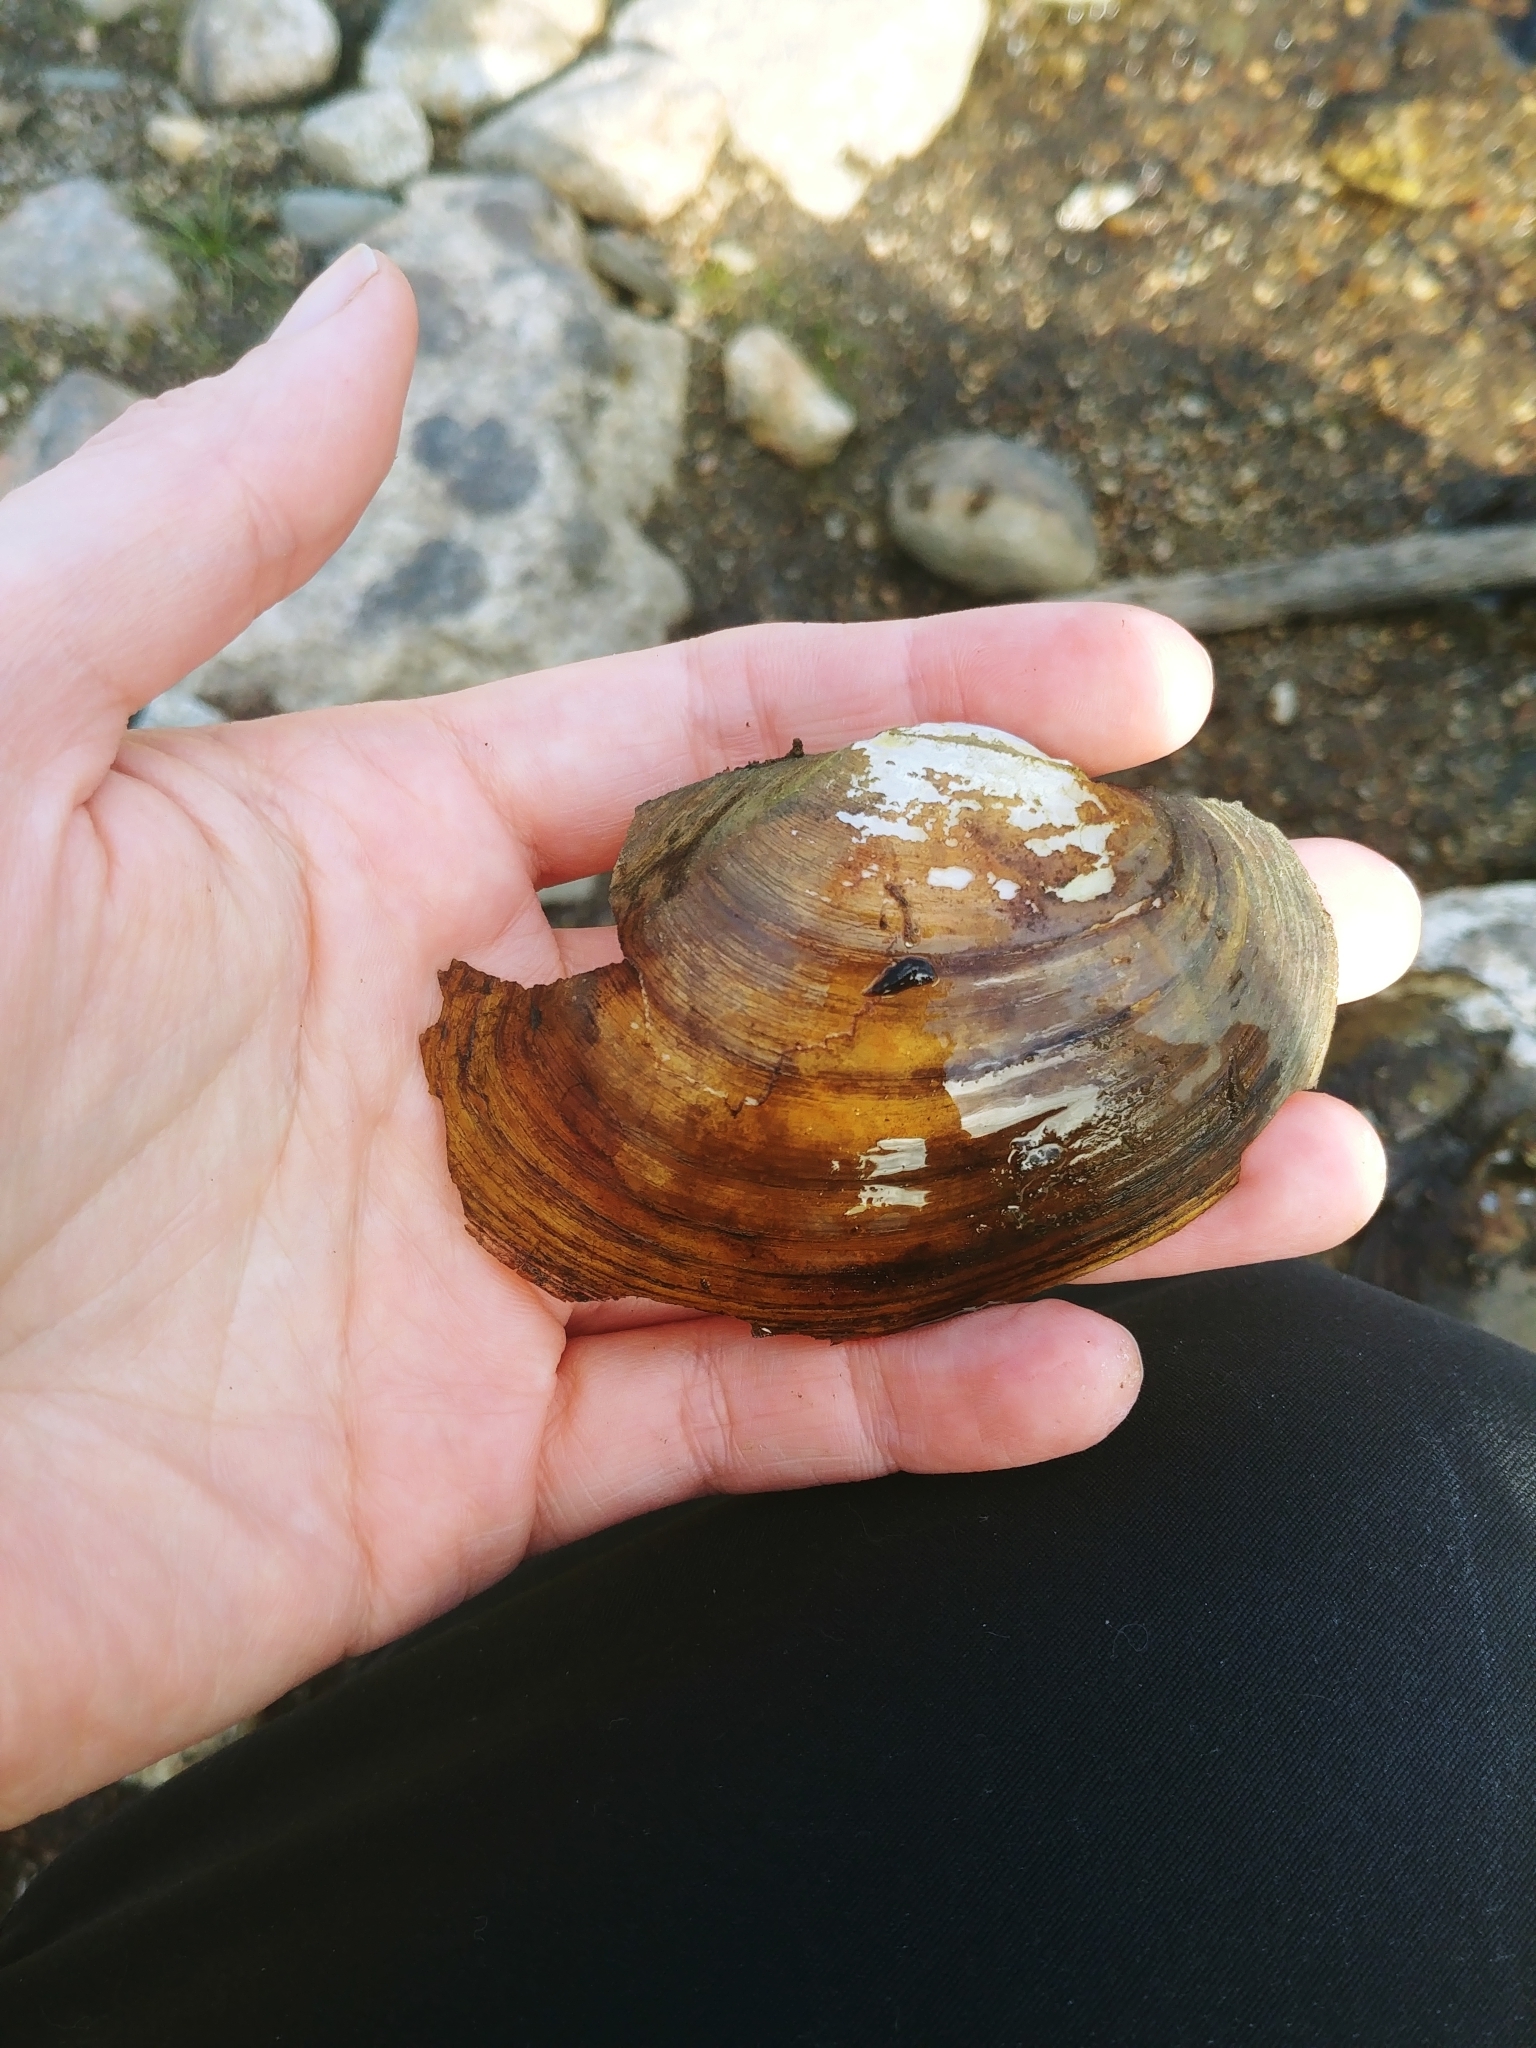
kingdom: Animalia
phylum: Mollusca
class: Bivalvia
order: Unionida
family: Unionidae
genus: Atlanticoncha
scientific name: Atlanticoncha ochracea
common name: Tidewater mucket
